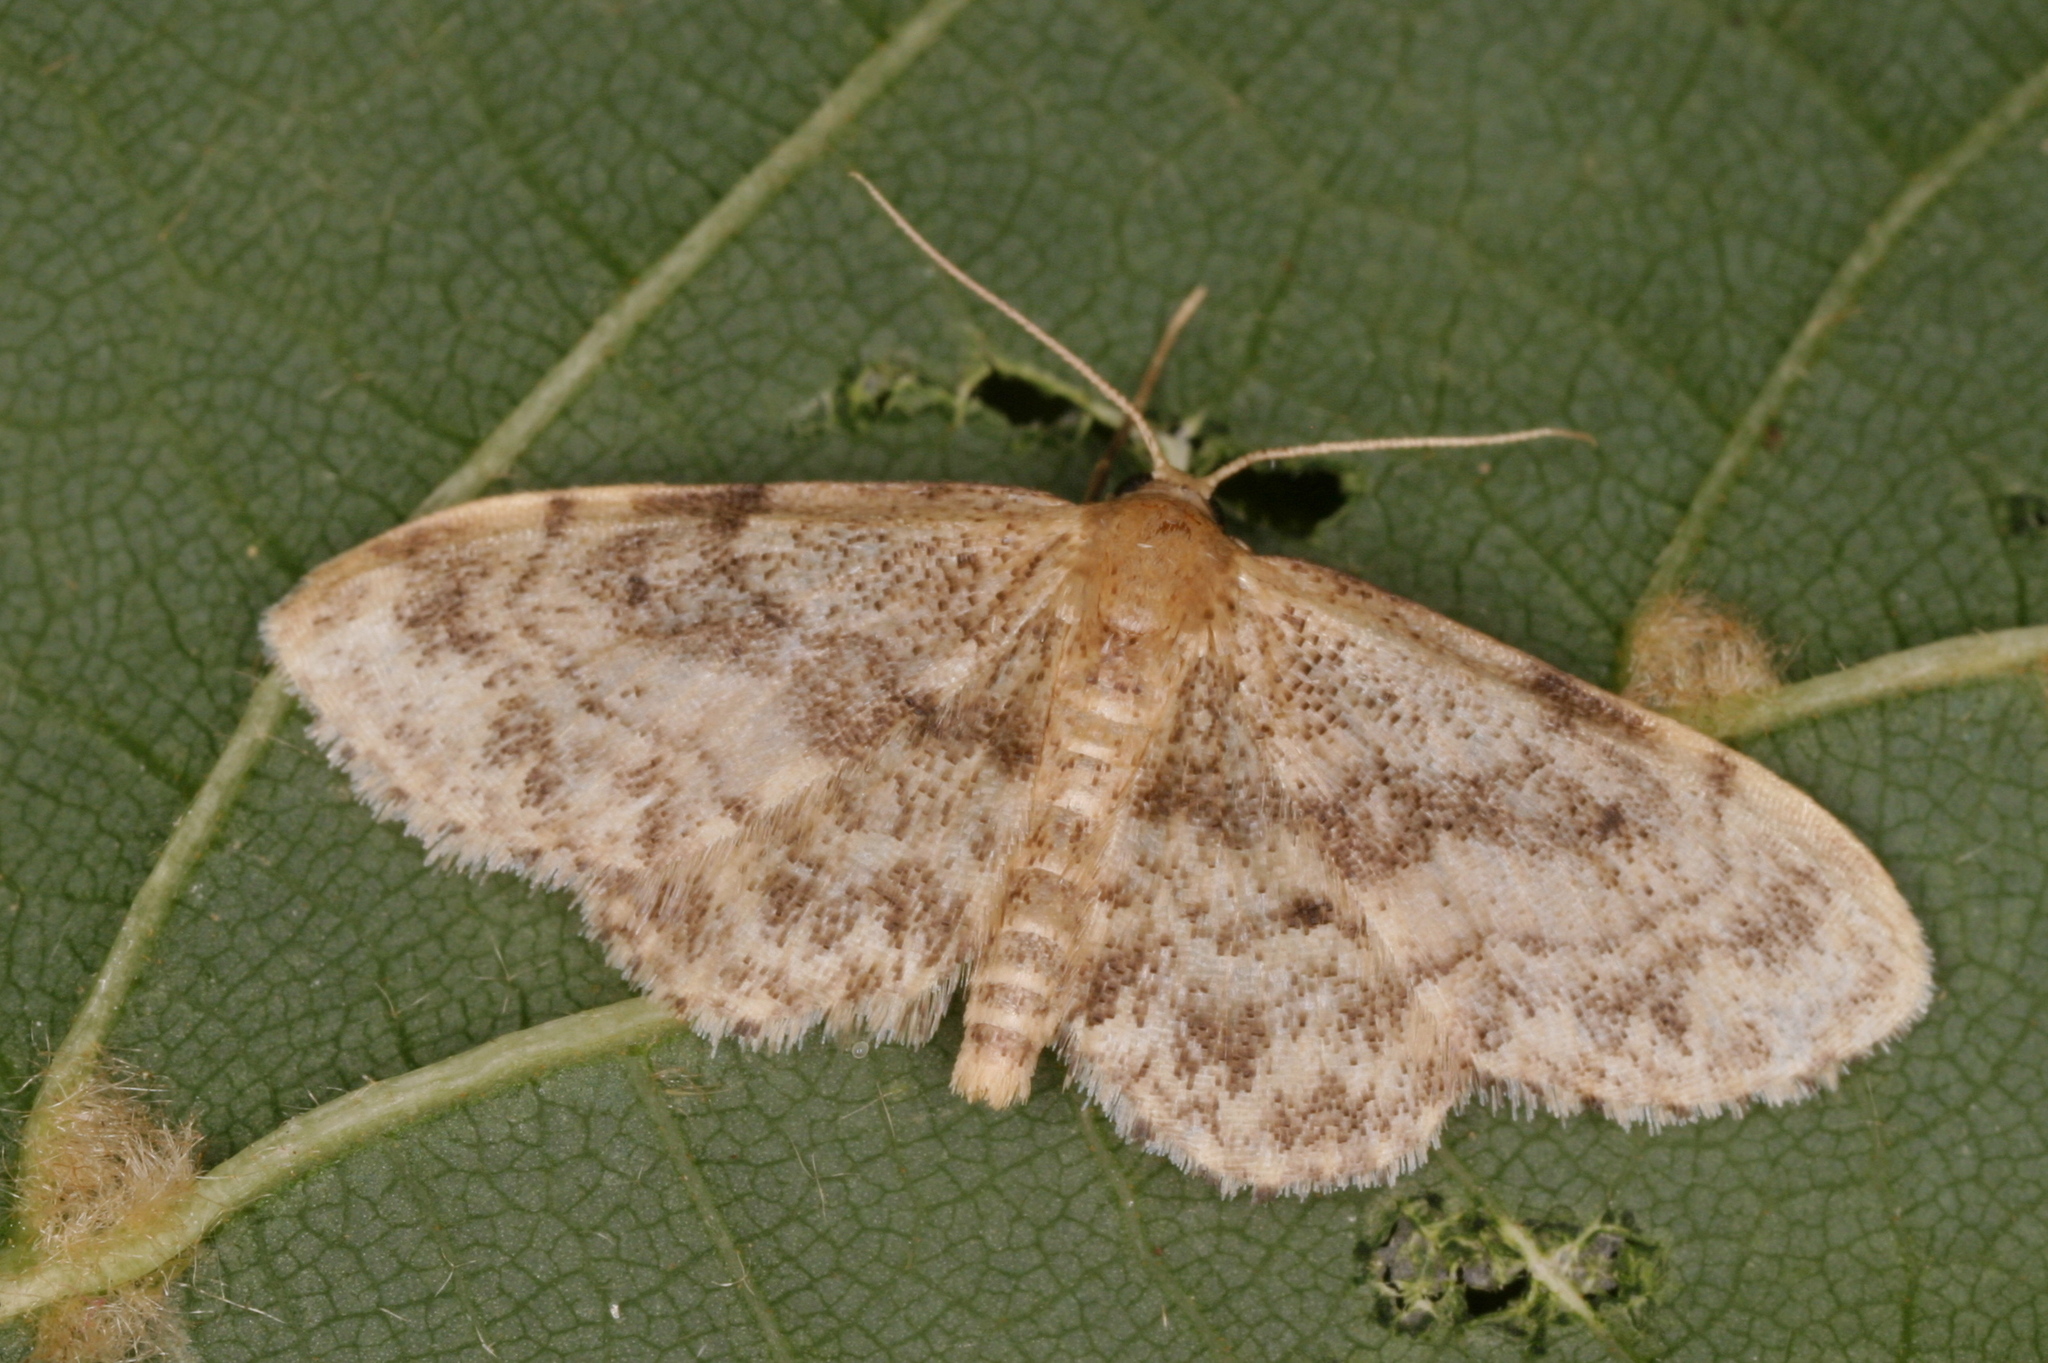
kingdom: Animalia
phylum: Arthropoda
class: Insecta
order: Lepidoptera
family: Geometridae
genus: Idaea
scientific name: Idaea inquinata
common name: Rusty wave
